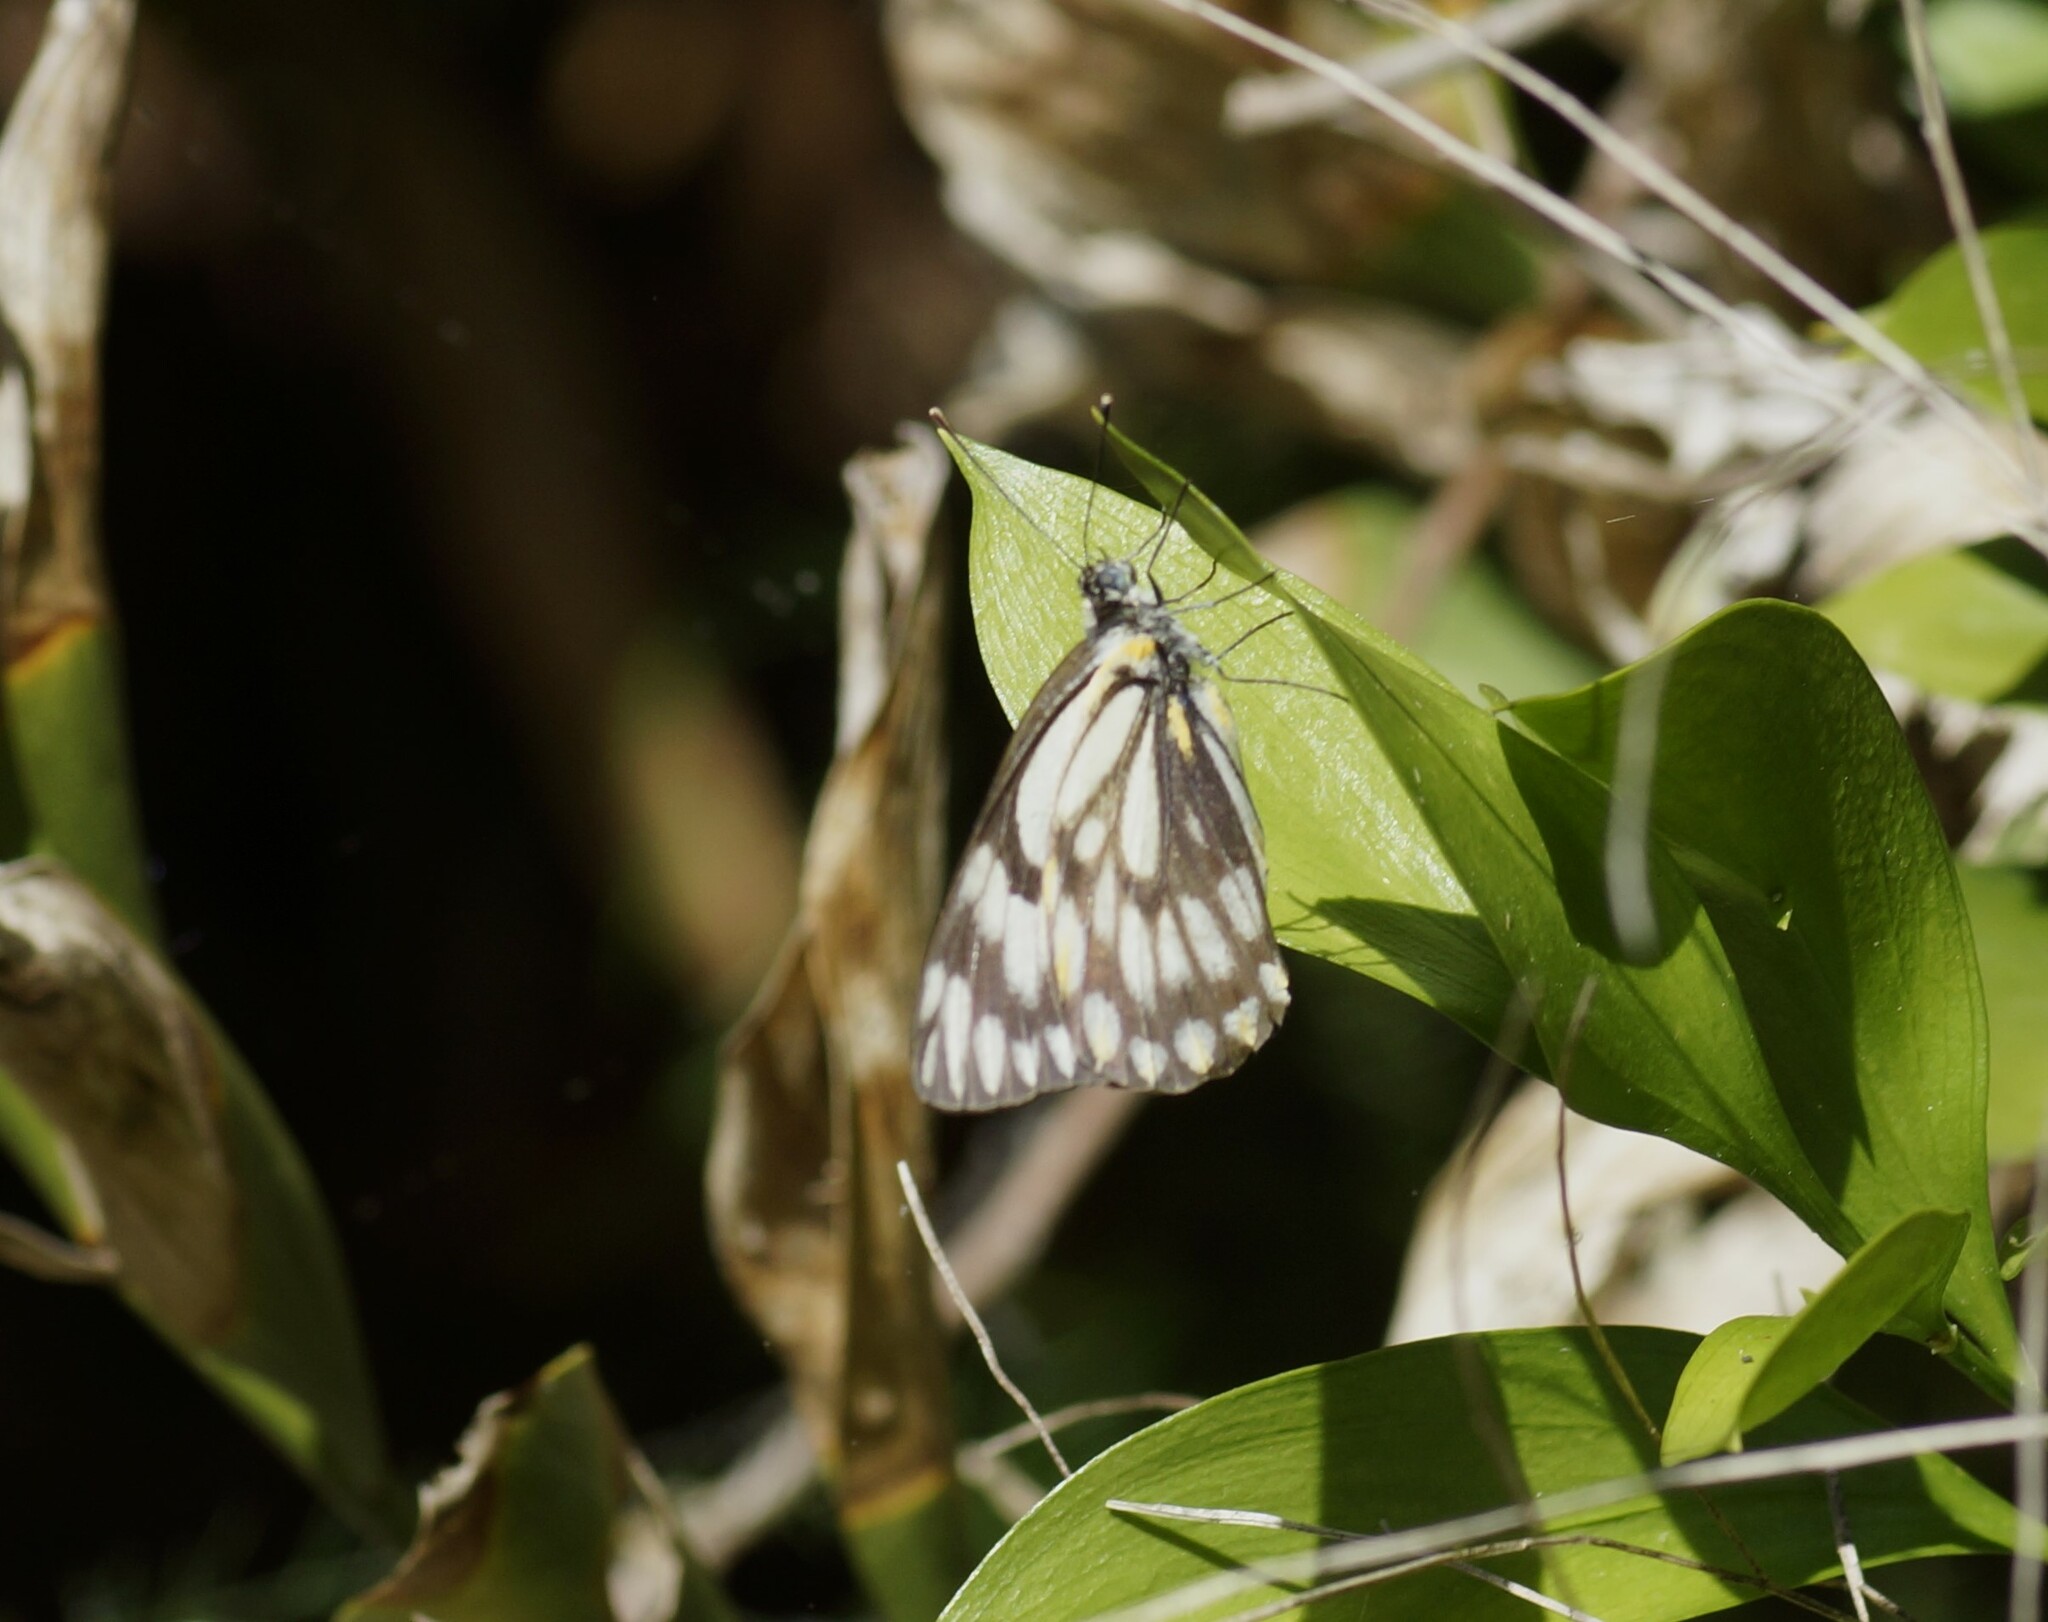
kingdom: Animalia
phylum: Arthropoda
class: Insecta
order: Lepidoptera
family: Pieridae
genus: Belenois
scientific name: Belenois java
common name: Caper white
